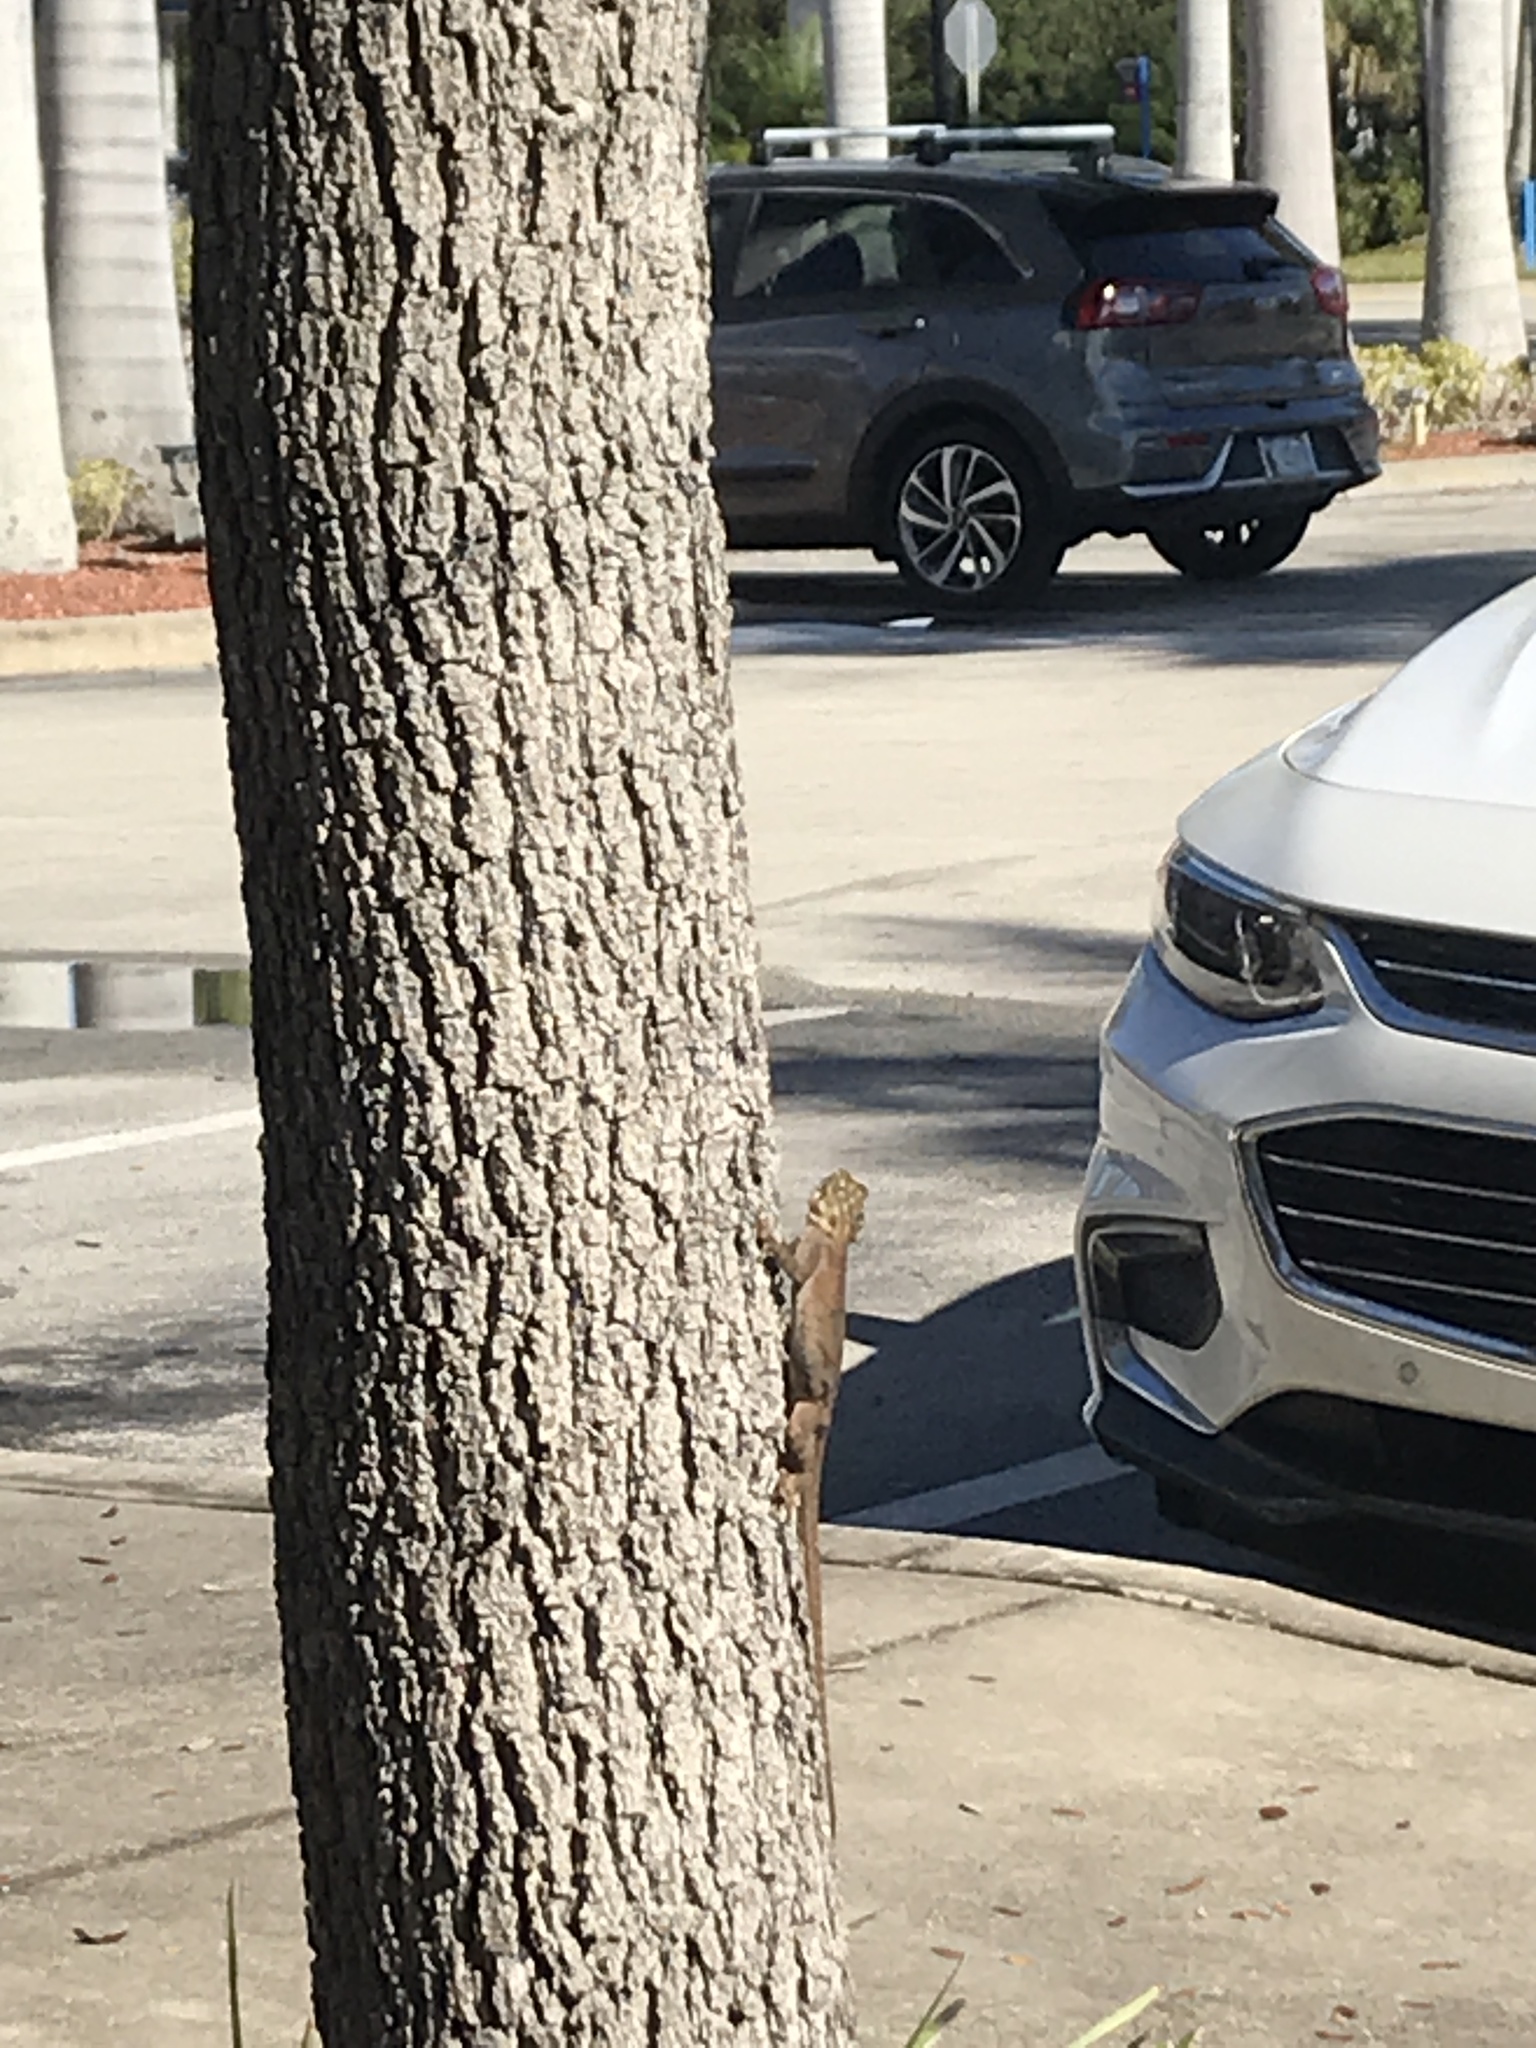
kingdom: Animalia
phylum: Chordata
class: Squamata
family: Agamidae
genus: Agama
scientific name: Agama picticauda
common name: Red-headed agama
